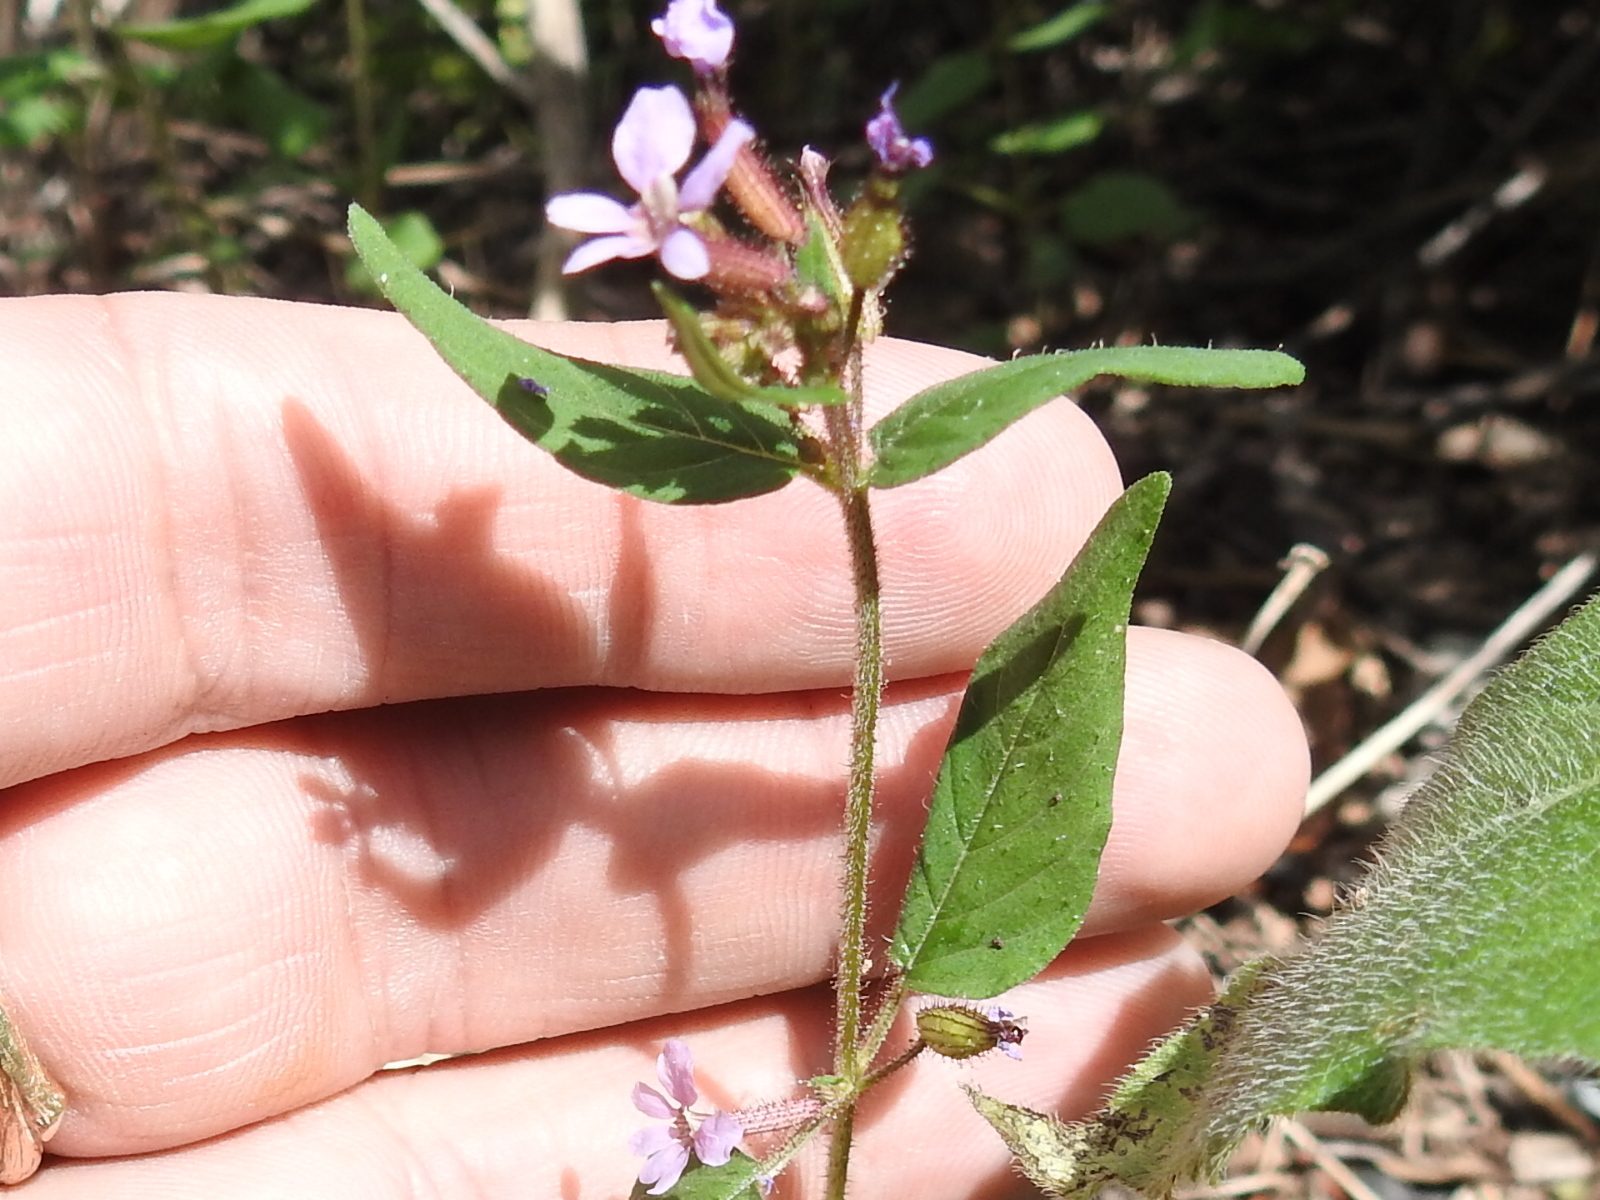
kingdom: Plantae
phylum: Tracheophyta
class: Magnoliopsida
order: Myrtales
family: Lythraceae
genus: Cuphea
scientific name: Cuphea wrightii
